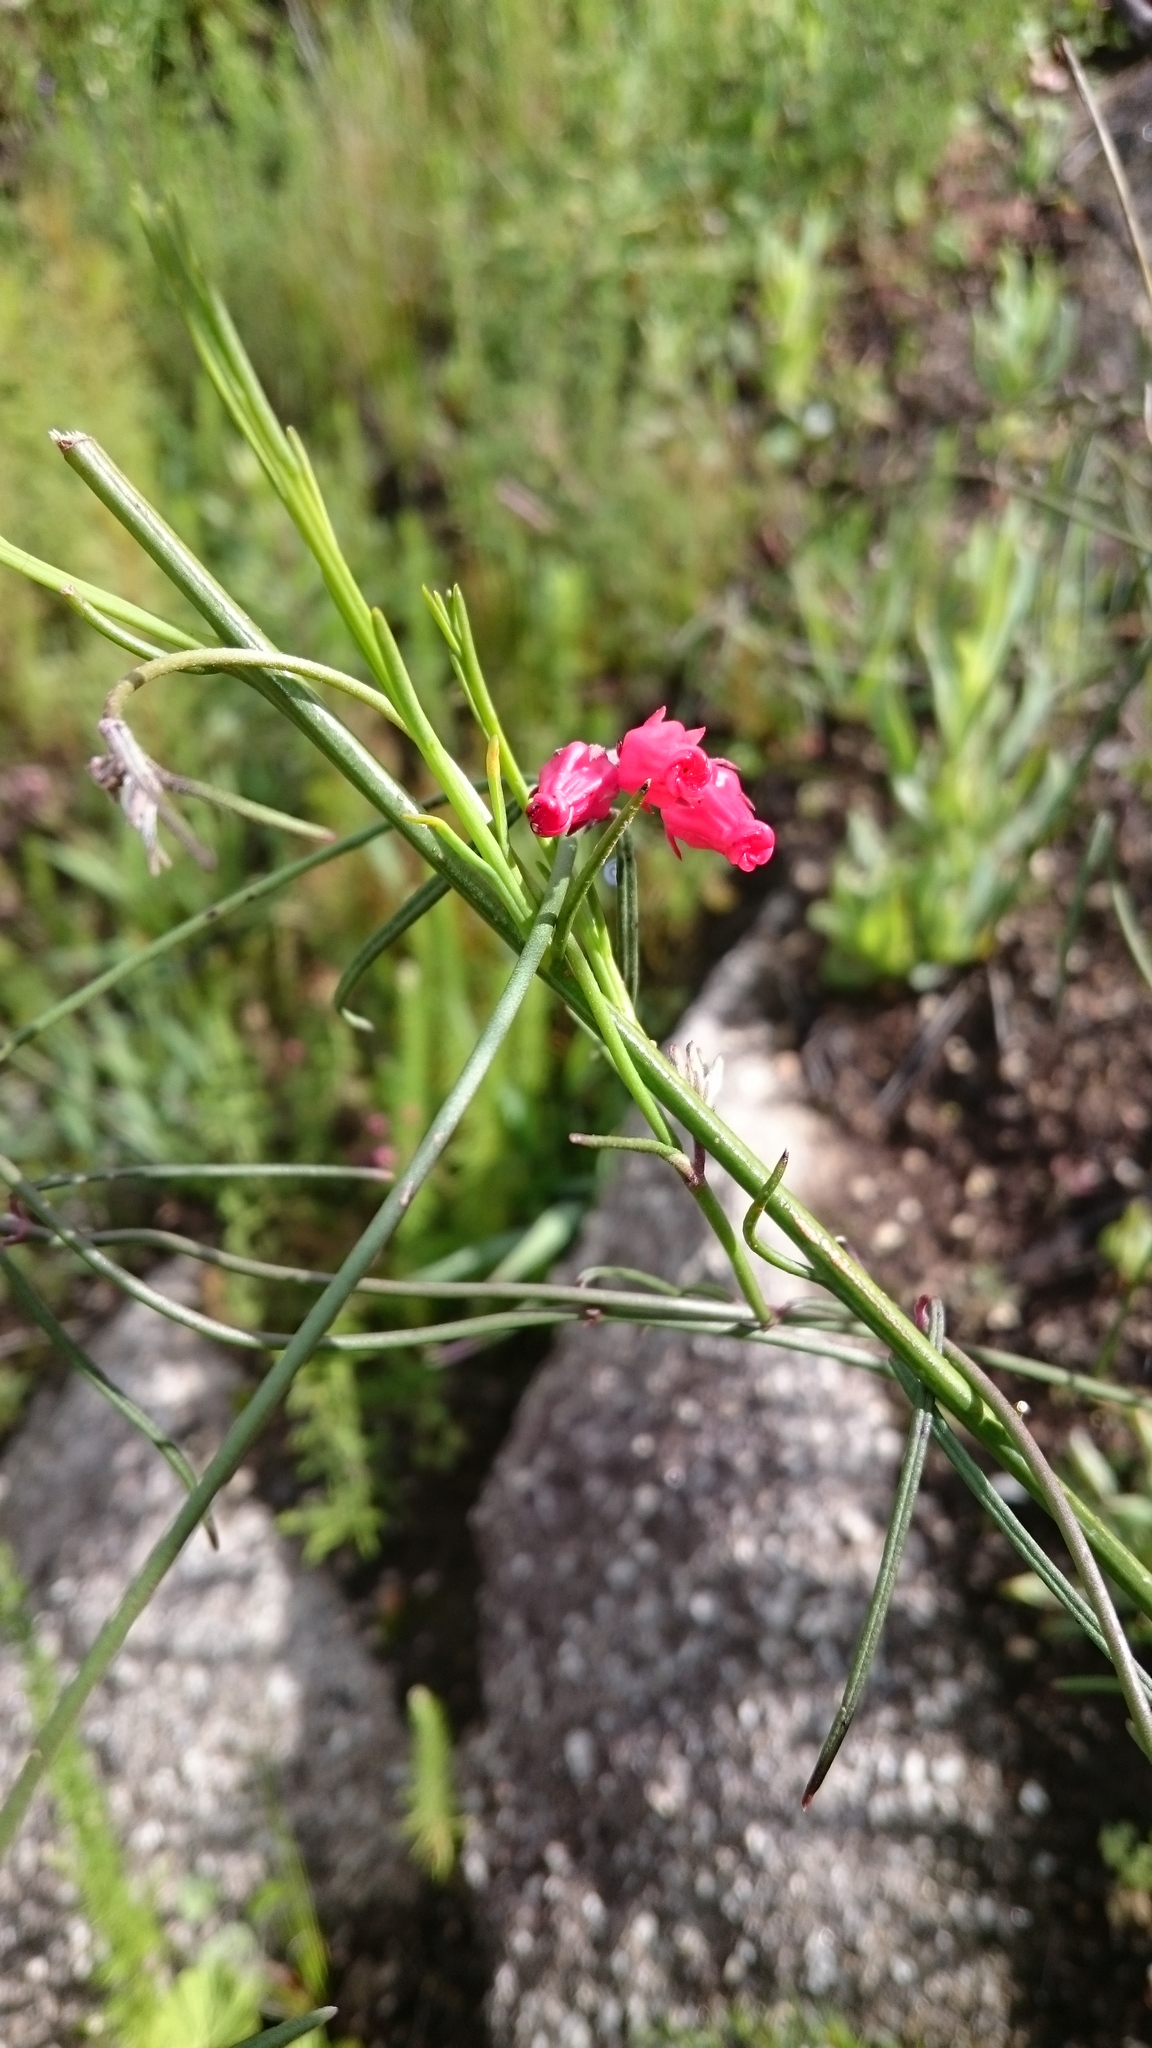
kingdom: Plantae
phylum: Tracheophyta
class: Magnoliopsida
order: Gentianales
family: Apocynaceae
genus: Microloma
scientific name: Microloma tenuifolium
